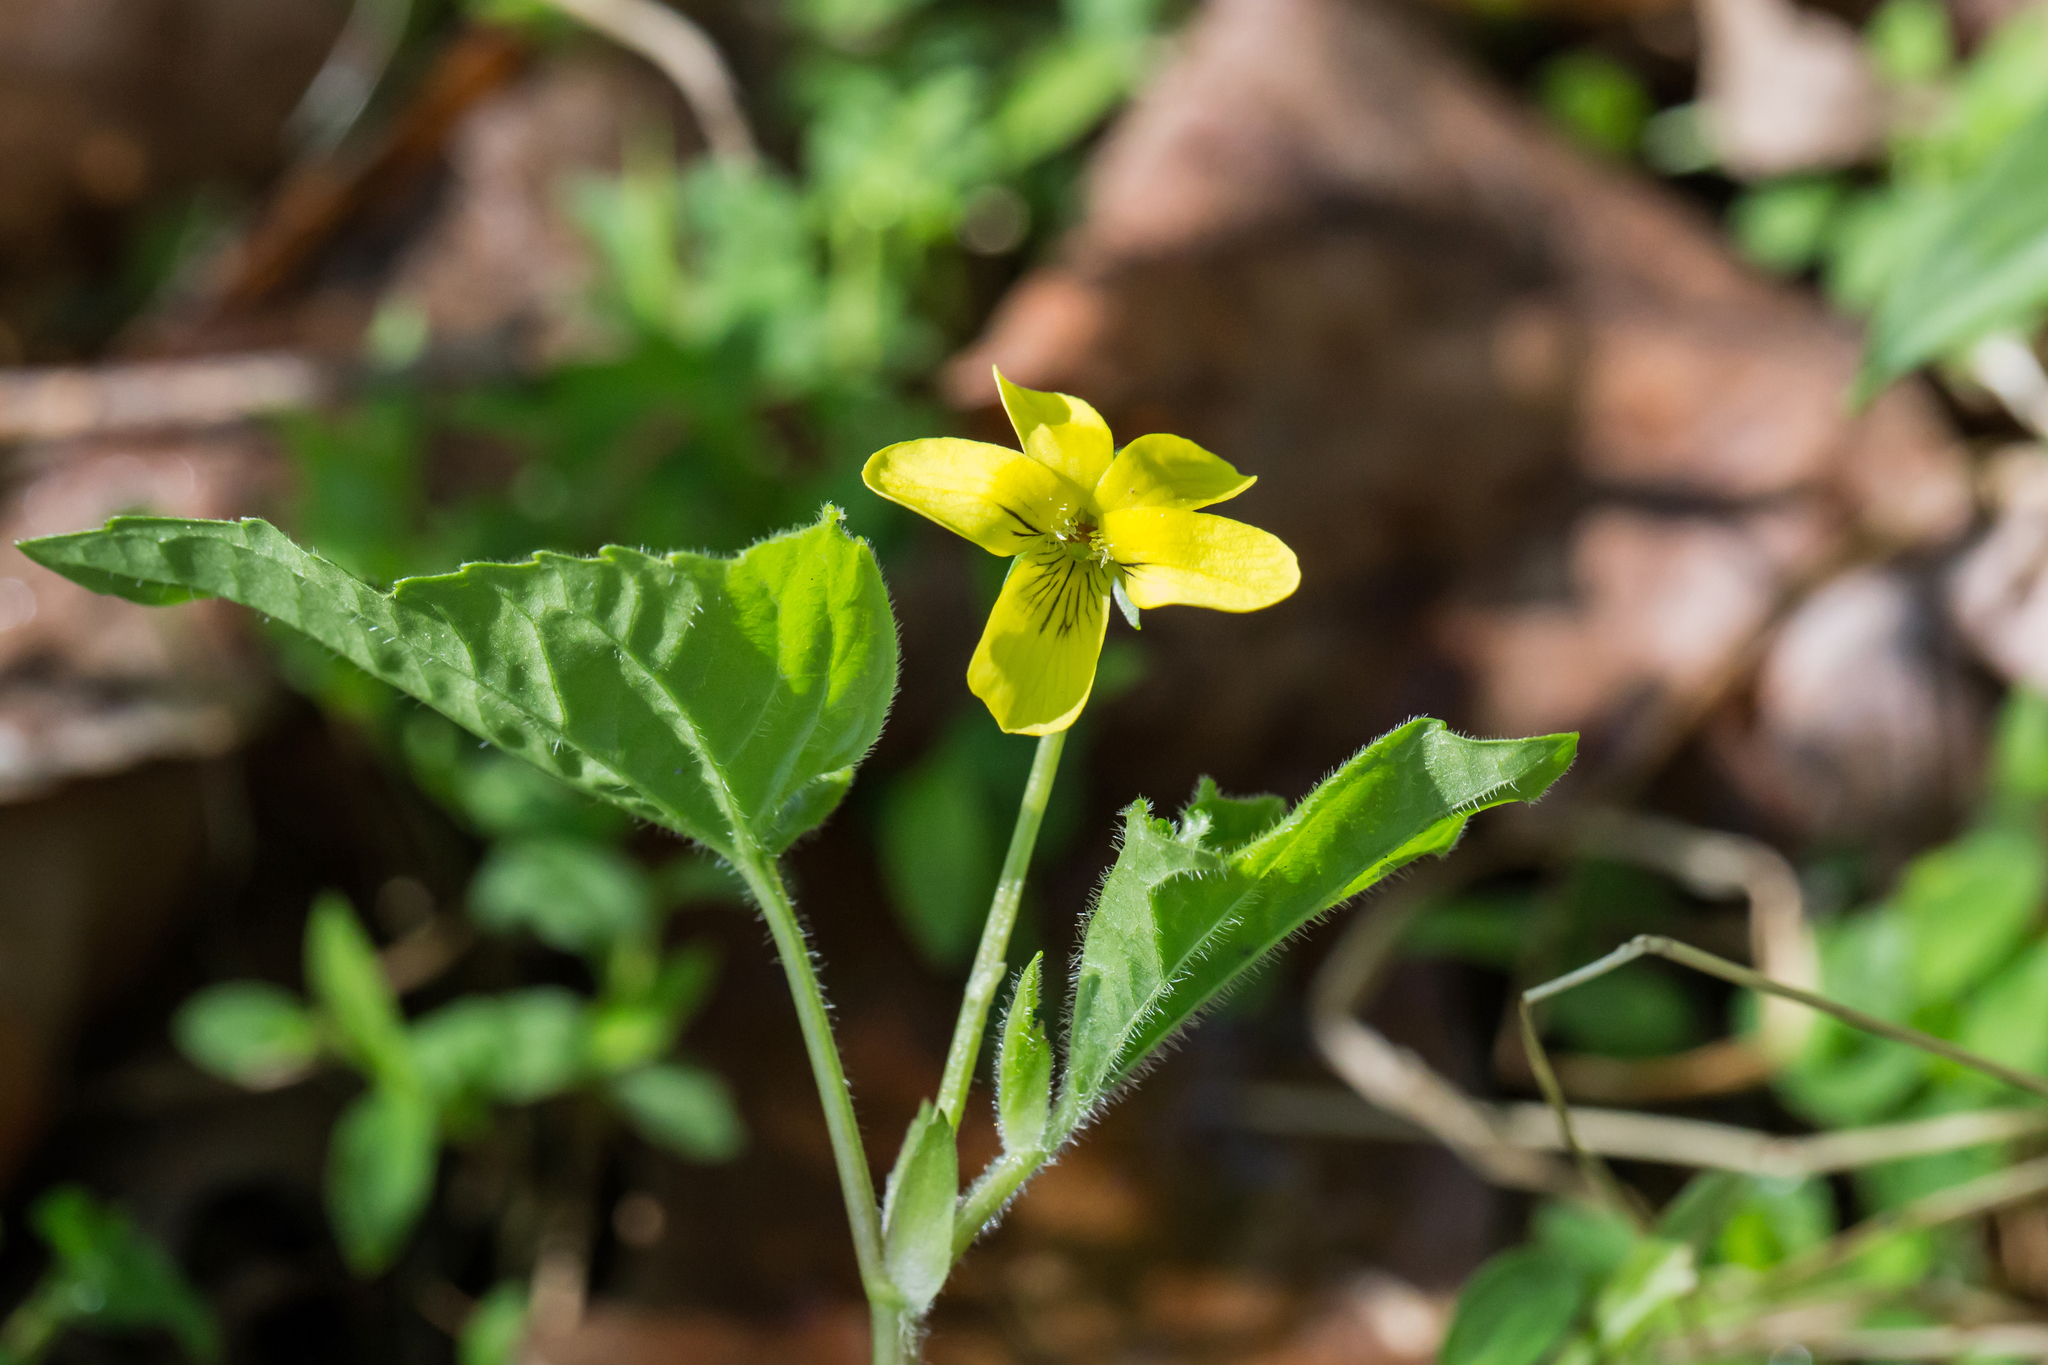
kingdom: Plantae
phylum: Tracheophyta
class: Magnoliopsida
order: Malpighiales
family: Violaceae
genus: Viola
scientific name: Viola eriocarpa
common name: Smooth yellow violet
